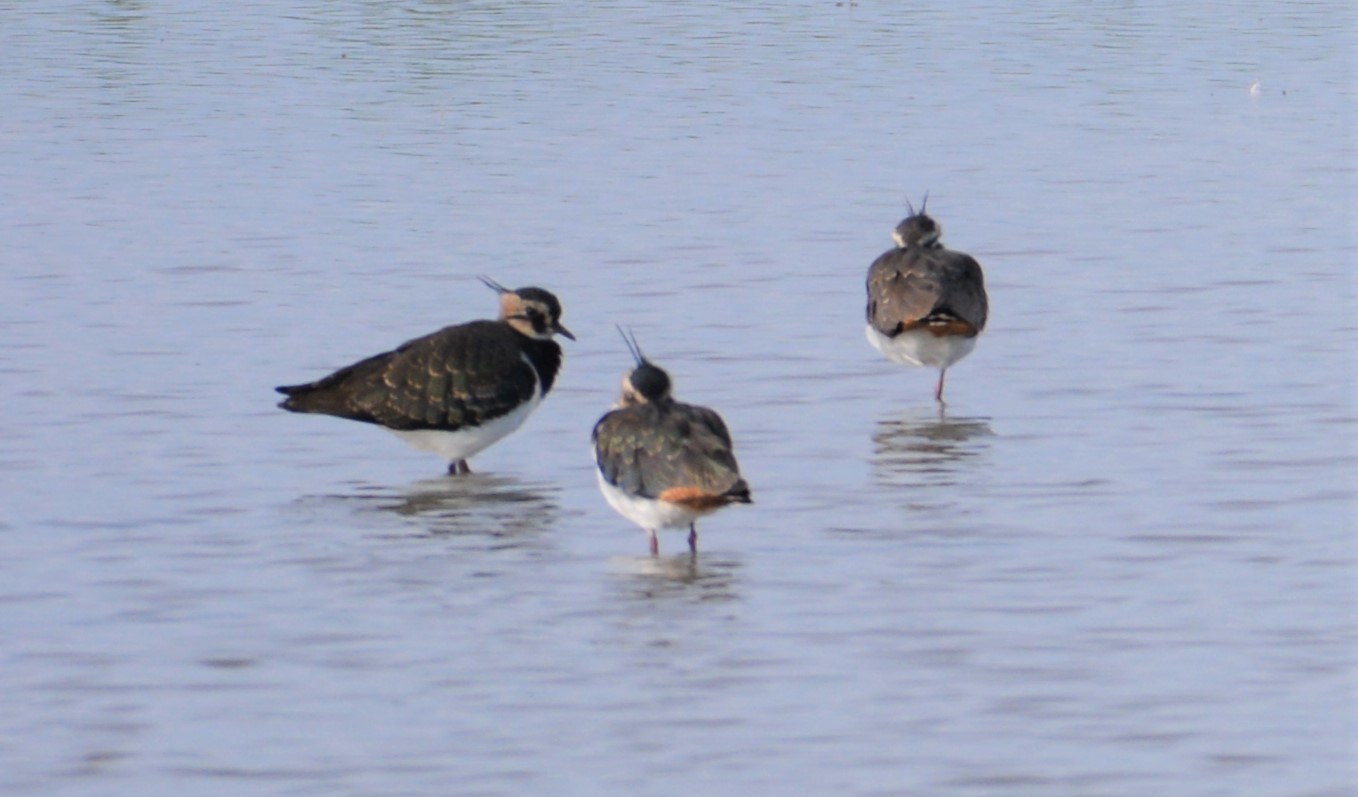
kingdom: Animalia
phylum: Chordata
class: Aves
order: Charadriiformes
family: Charadriidae
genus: Vanellus
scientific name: Vanellus vanellus
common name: Northern lapwing
